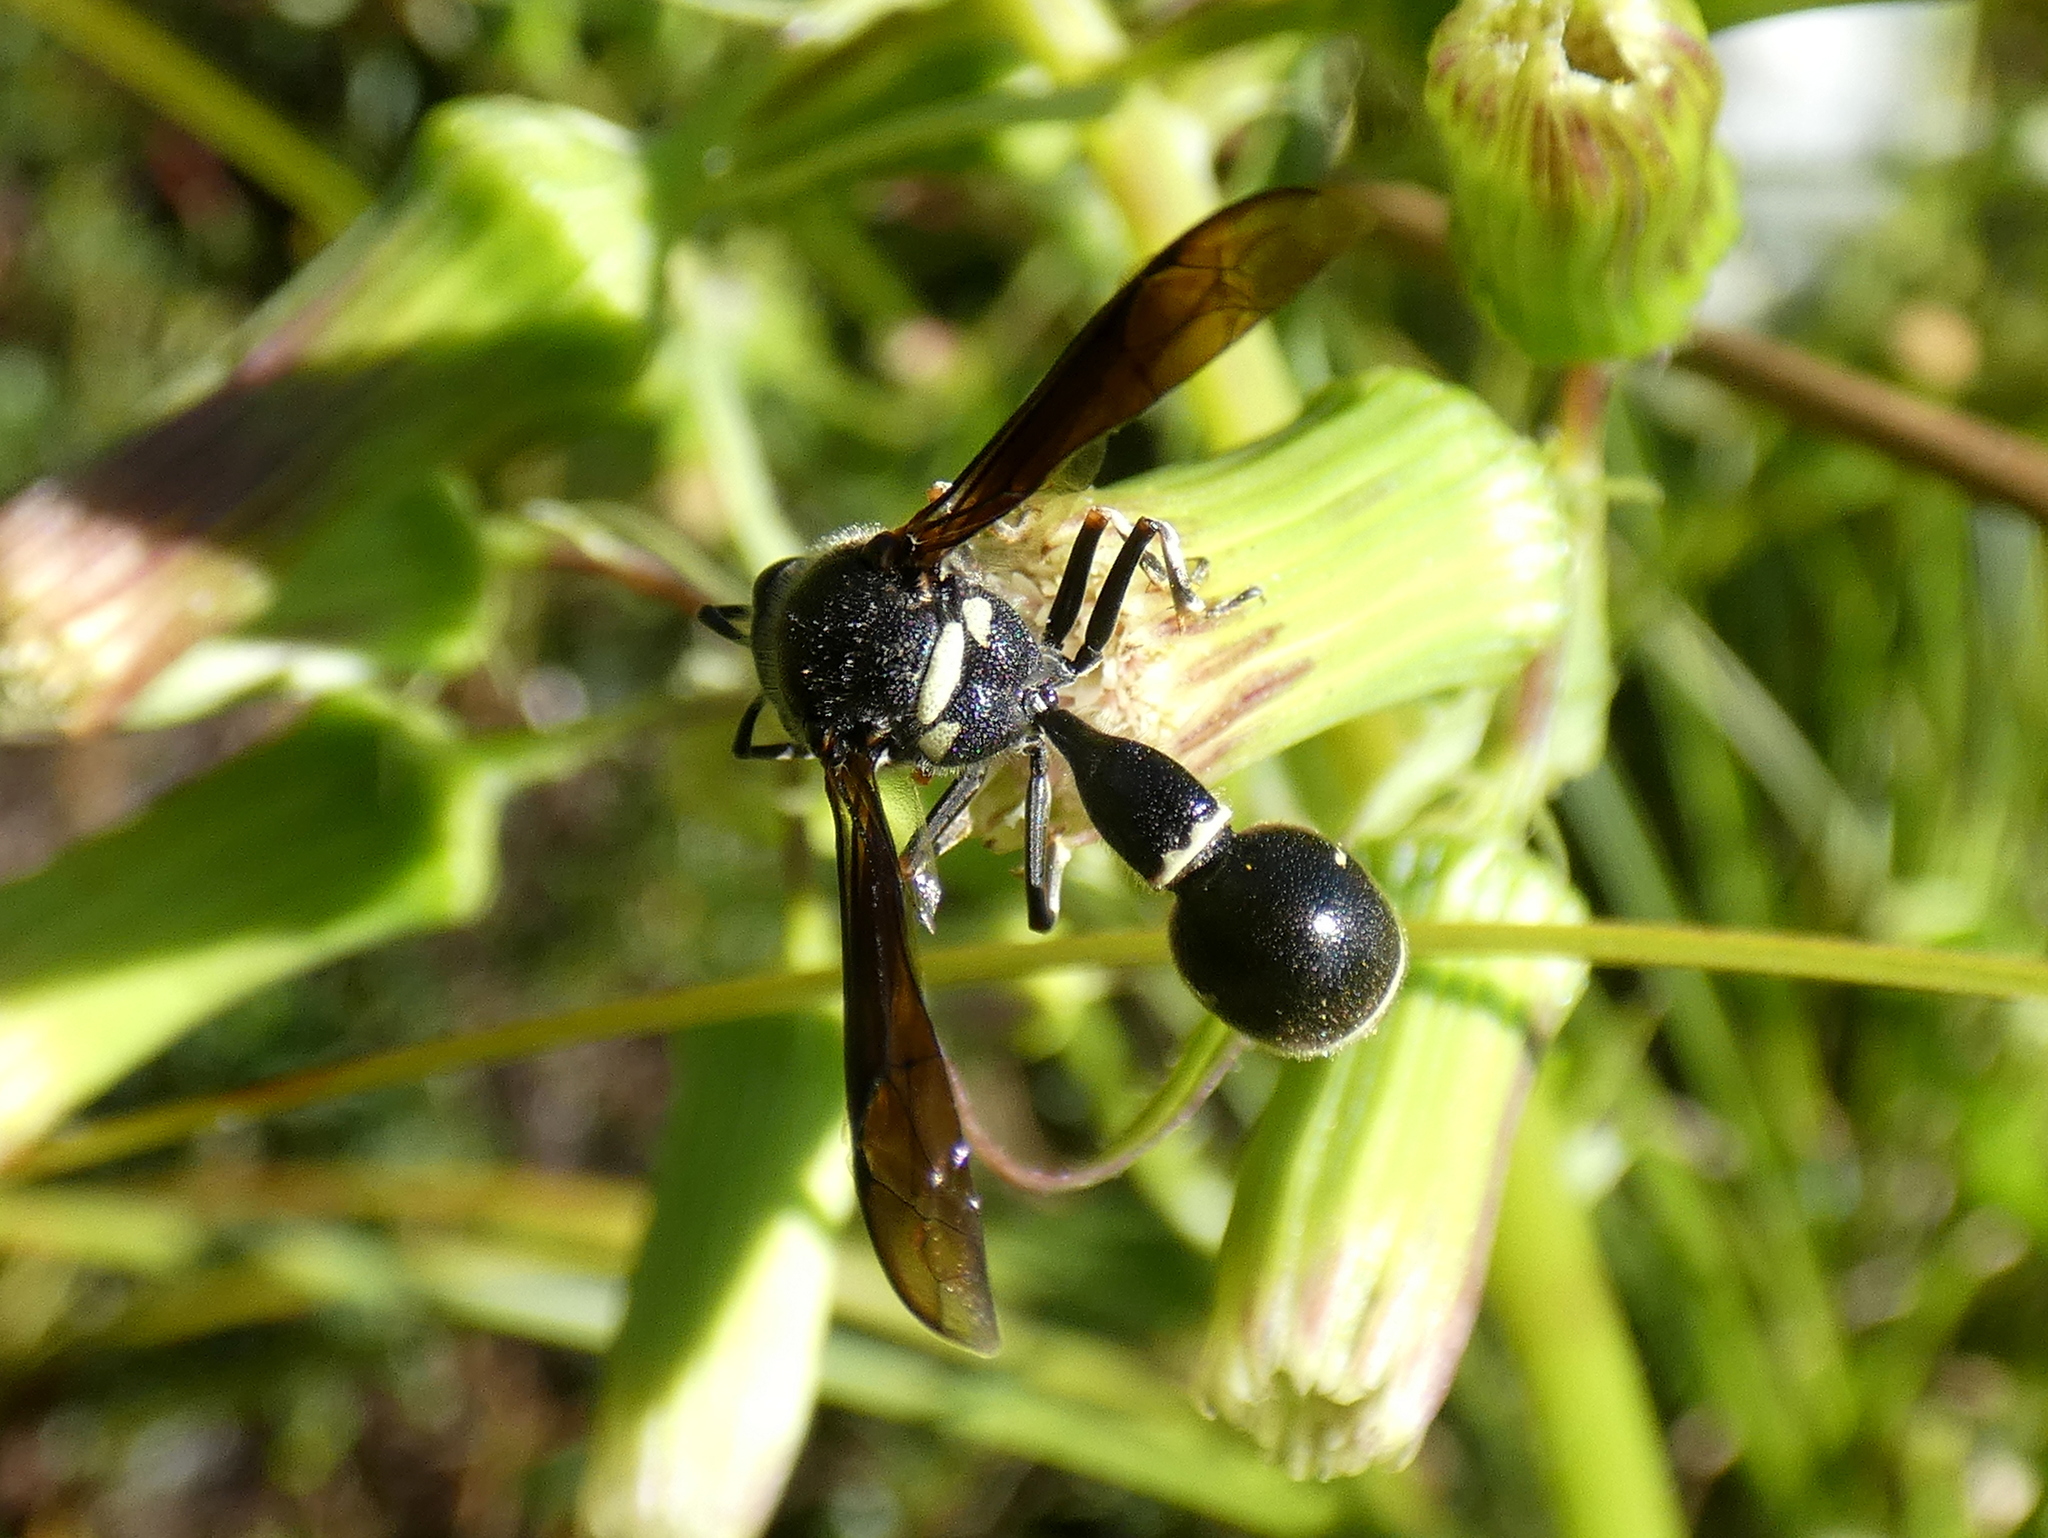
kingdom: Animalia
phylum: Arthropoda
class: Insecta
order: Hymenoptera
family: Vespidae
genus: Eumenes
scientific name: Eumenes fraternus
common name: Fraternal potter wasp
